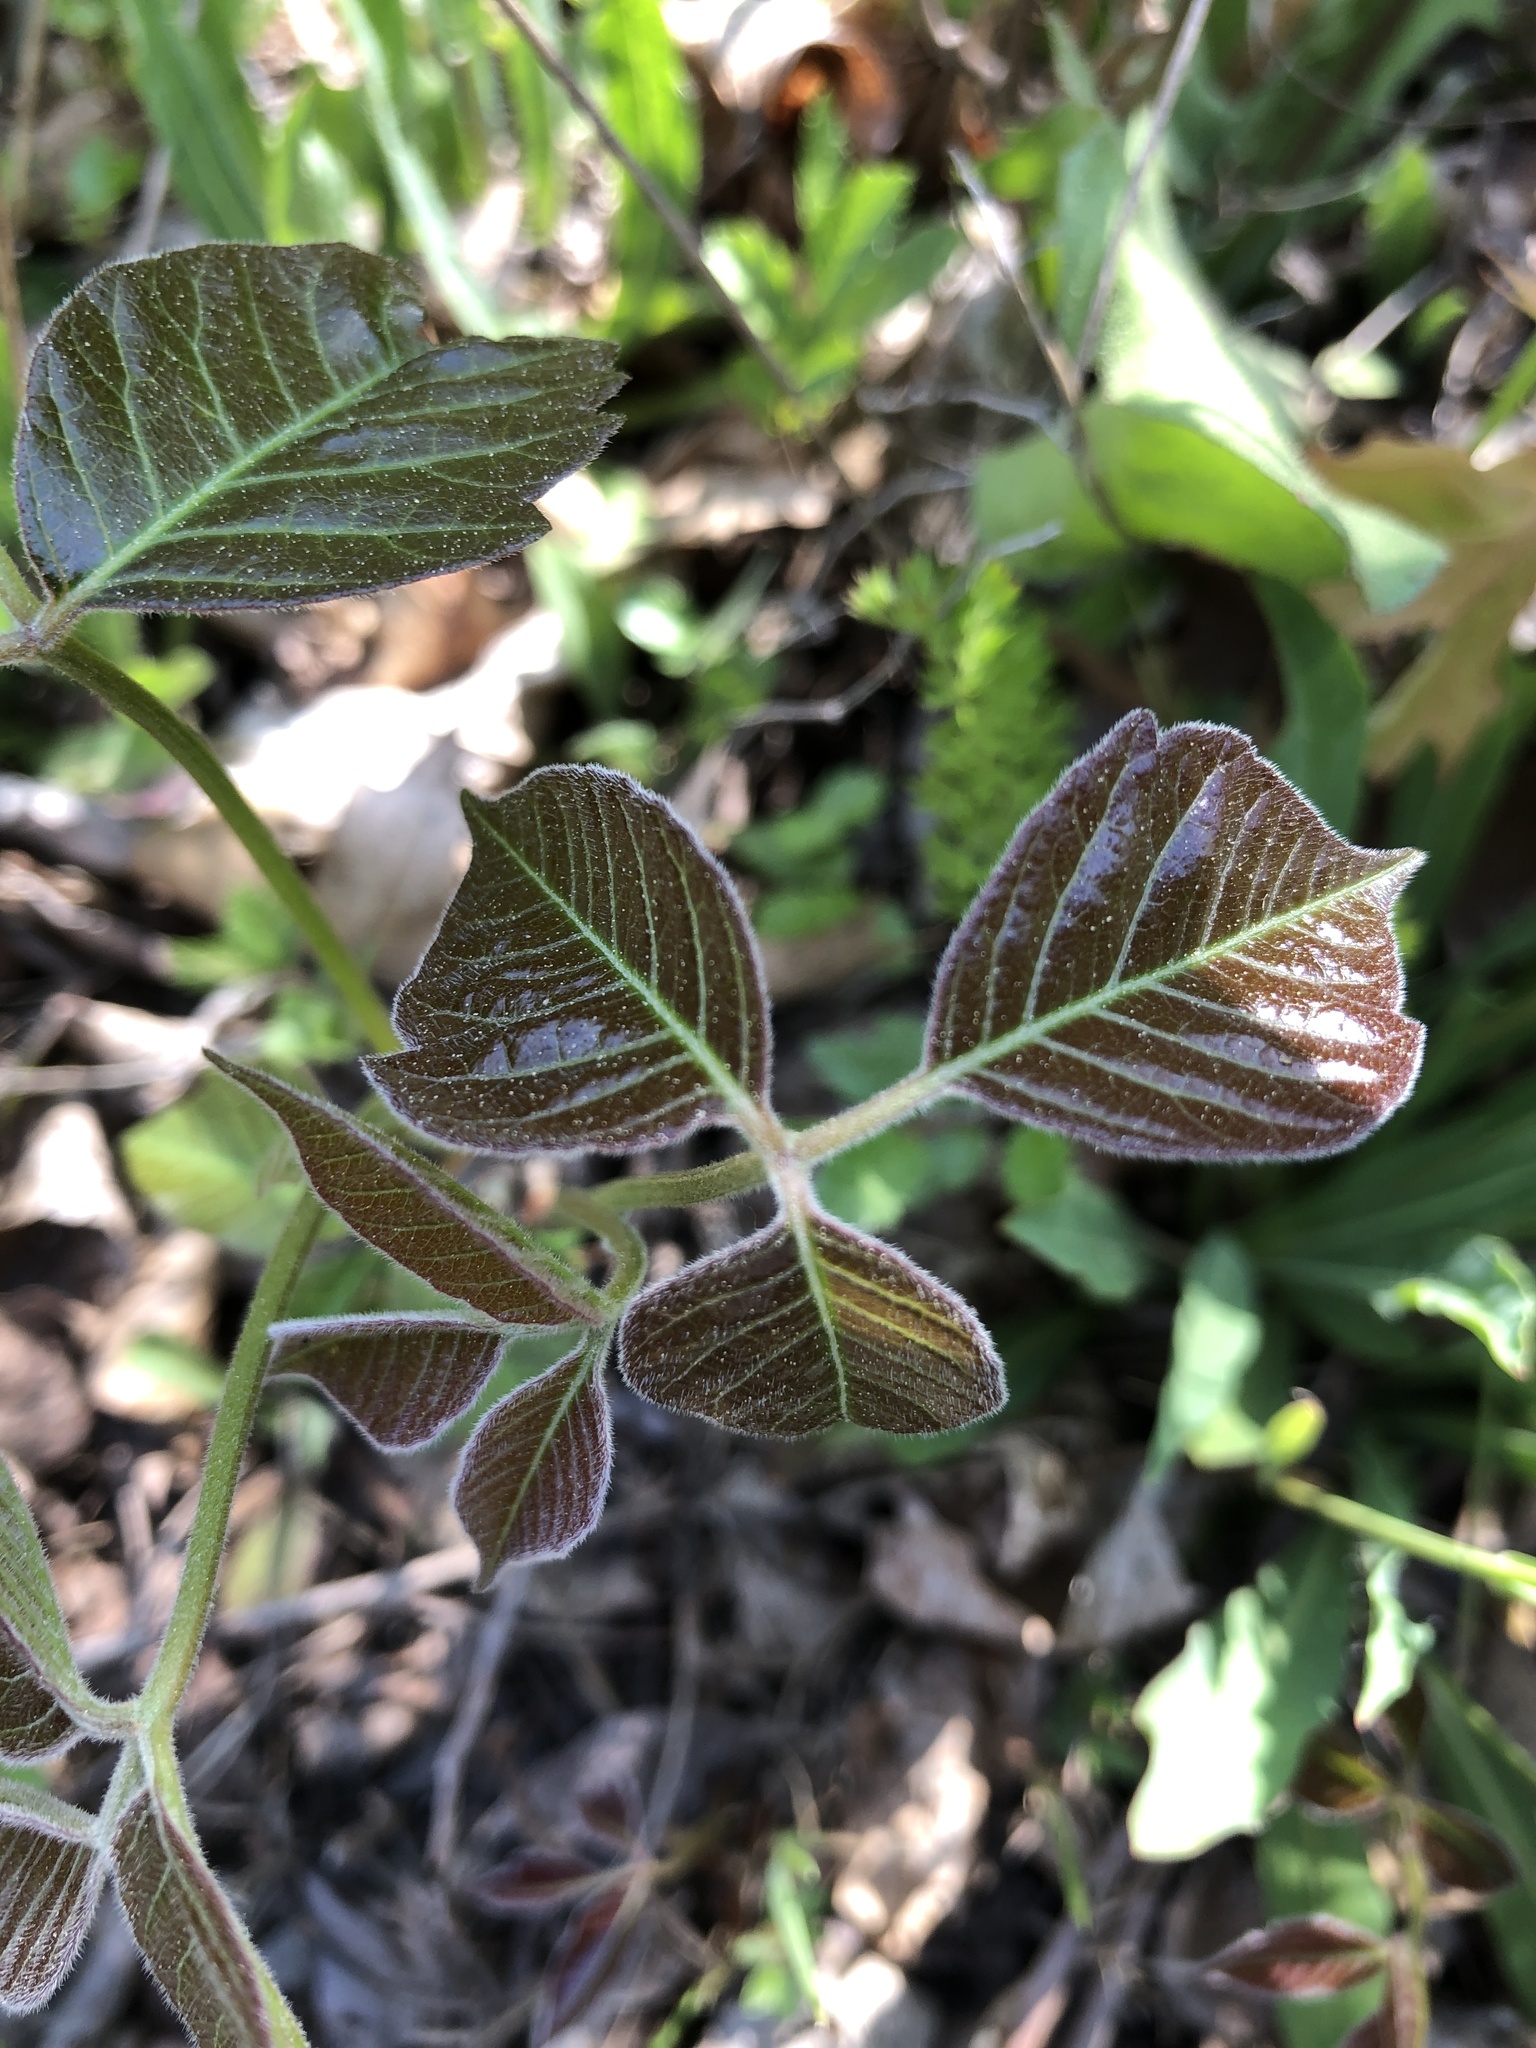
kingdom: Plantae
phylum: Tracheophyta
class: Magnoliopsida
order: Sapindales
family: Anacardiaceae
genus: Toxicodendron
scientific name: Toxicodendron radicans
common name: Poison ivy
